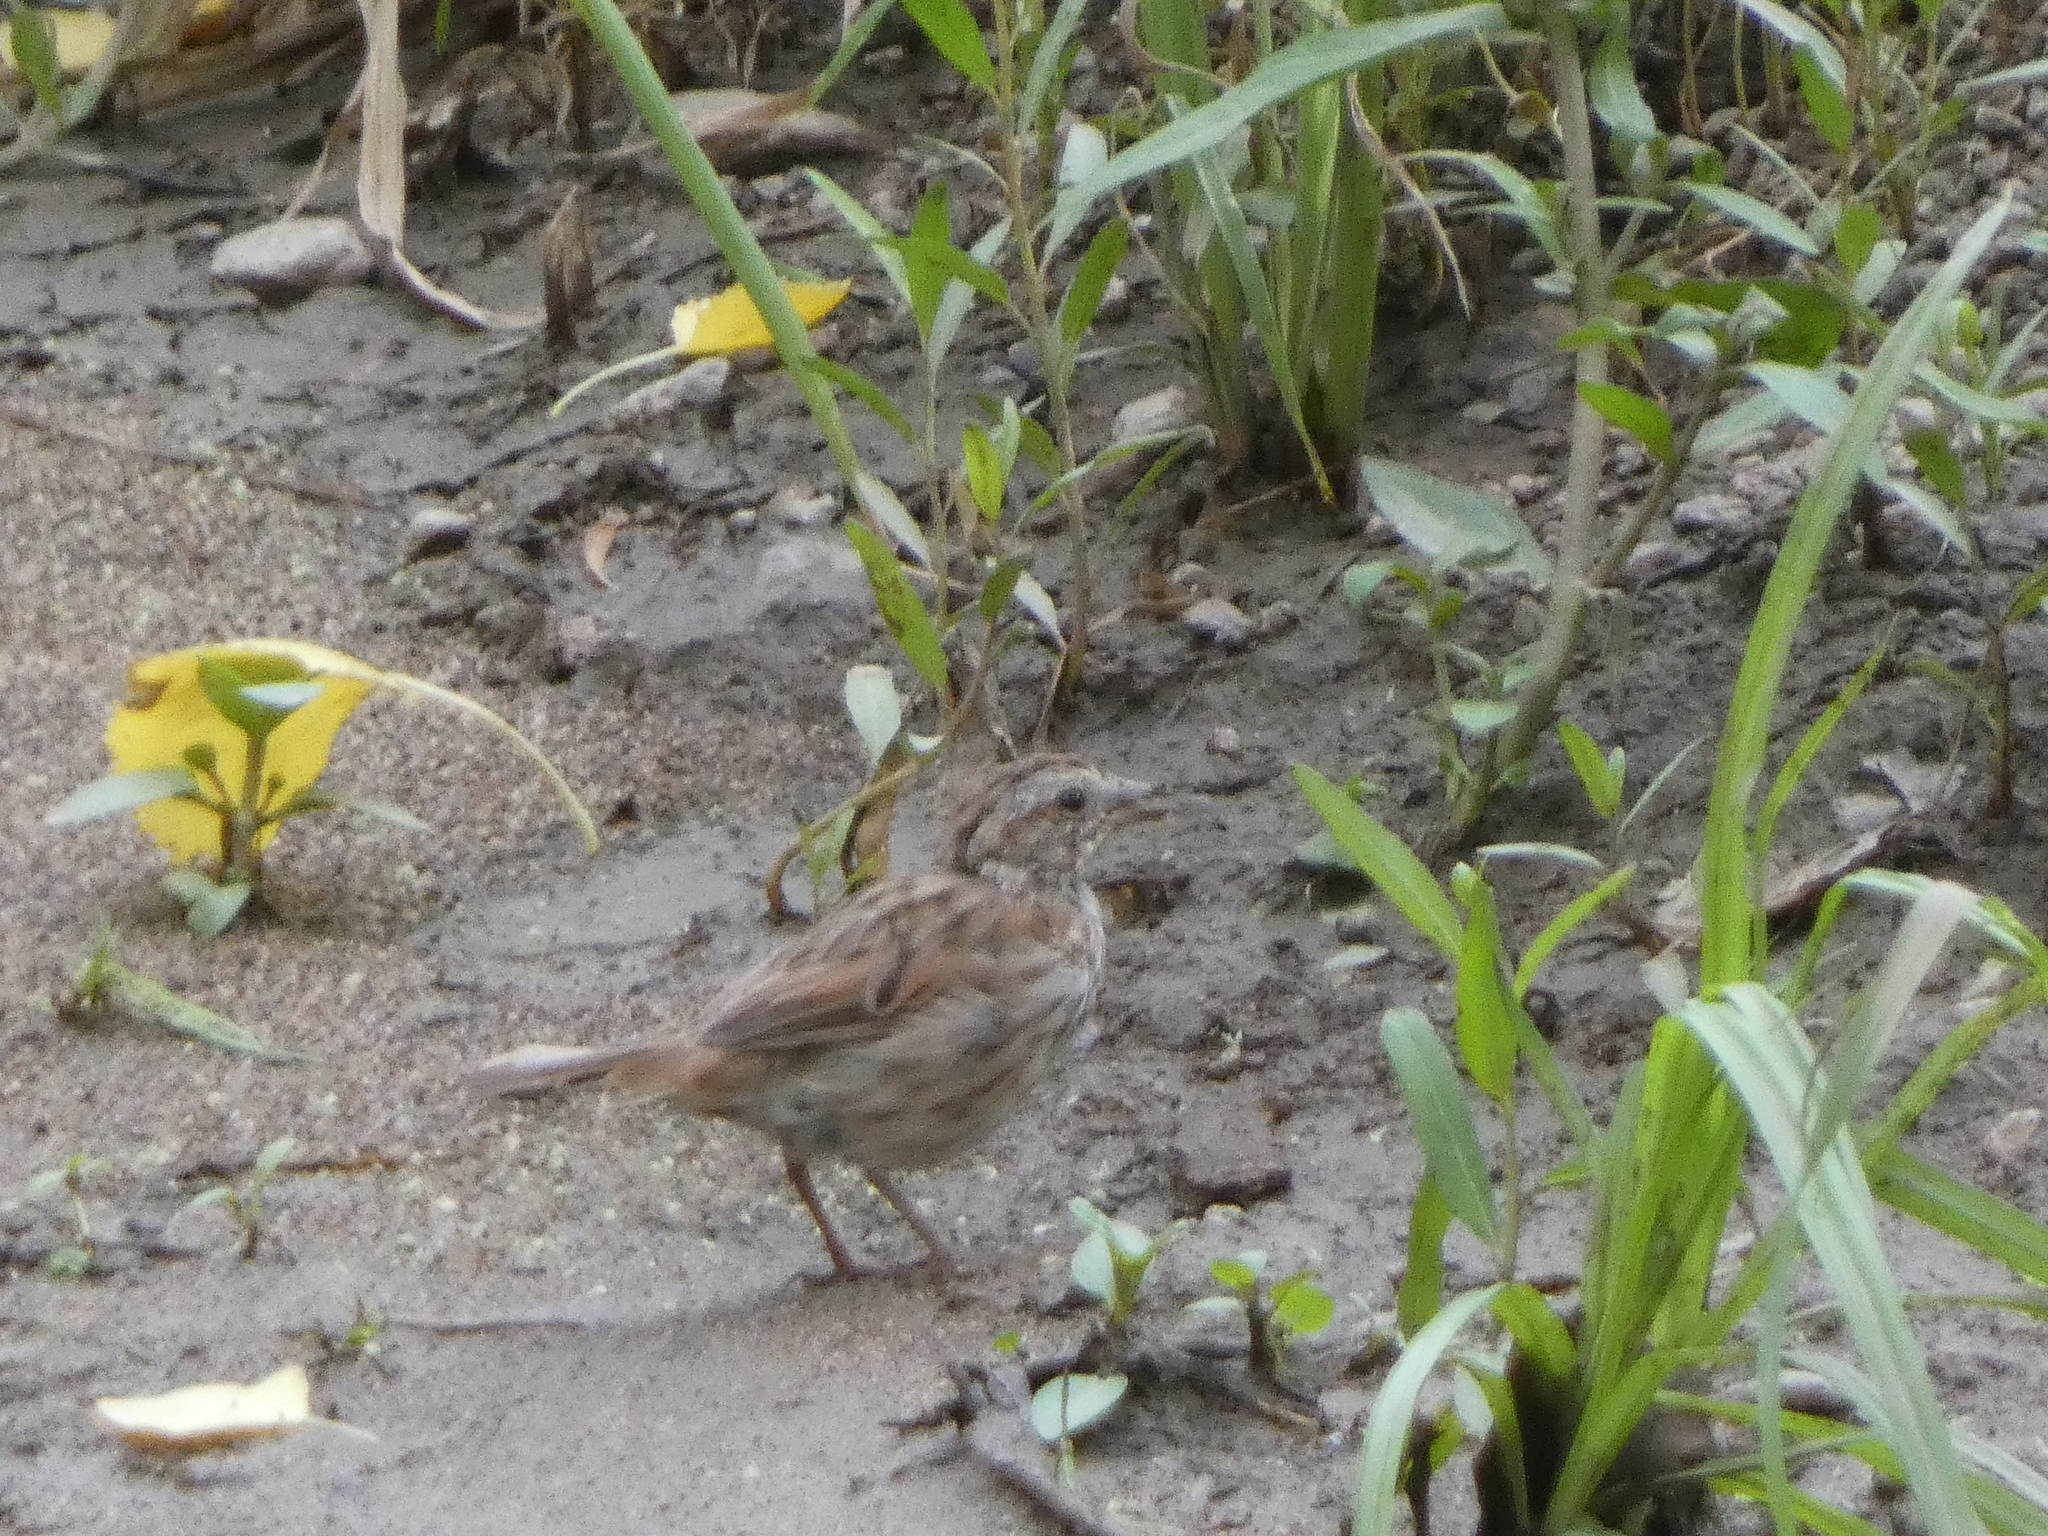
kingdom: Animalia
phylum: Chordata
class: Aves
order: Passeriformes
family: Passerellidae
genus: Melospiza
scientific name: Melospiza melodia
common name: Song sparrow
